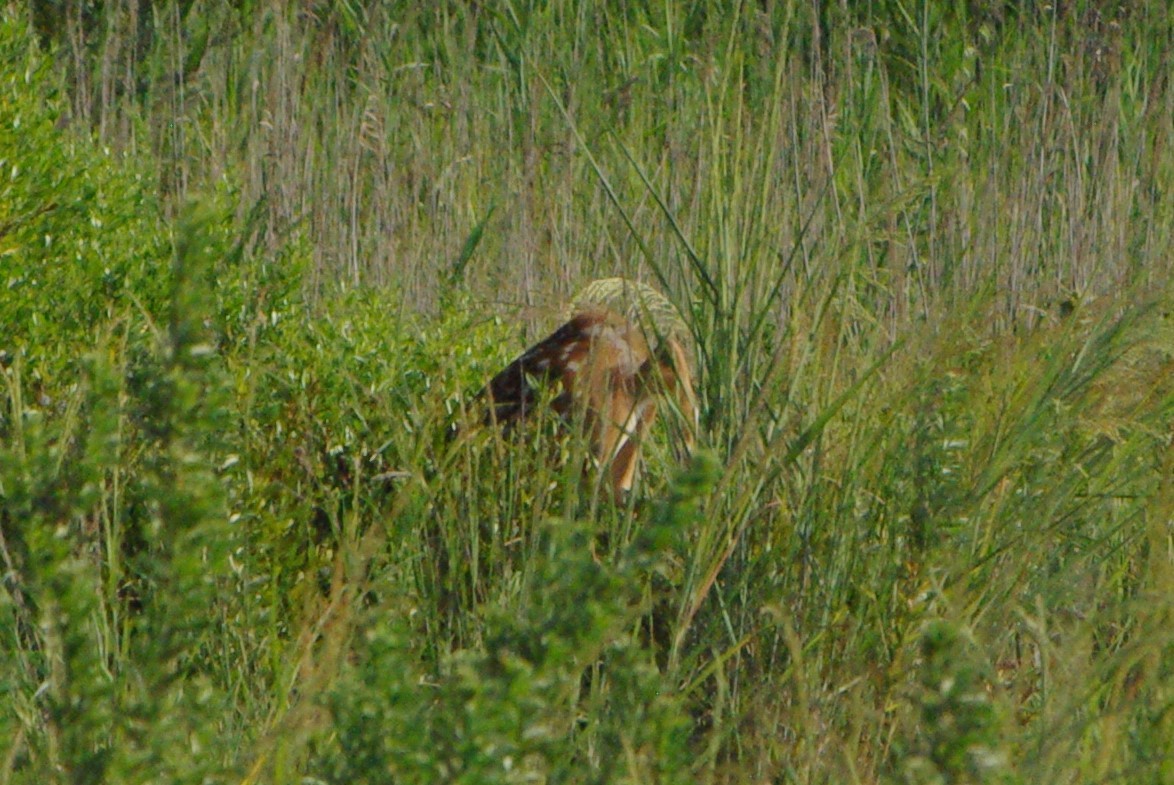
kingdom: Animalia
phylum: Chordata
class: Mammalia
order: Artiodactyla
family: Cervidae
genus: Odocoileus
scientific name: Odocoileus virginianus
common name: White-tailed deer
